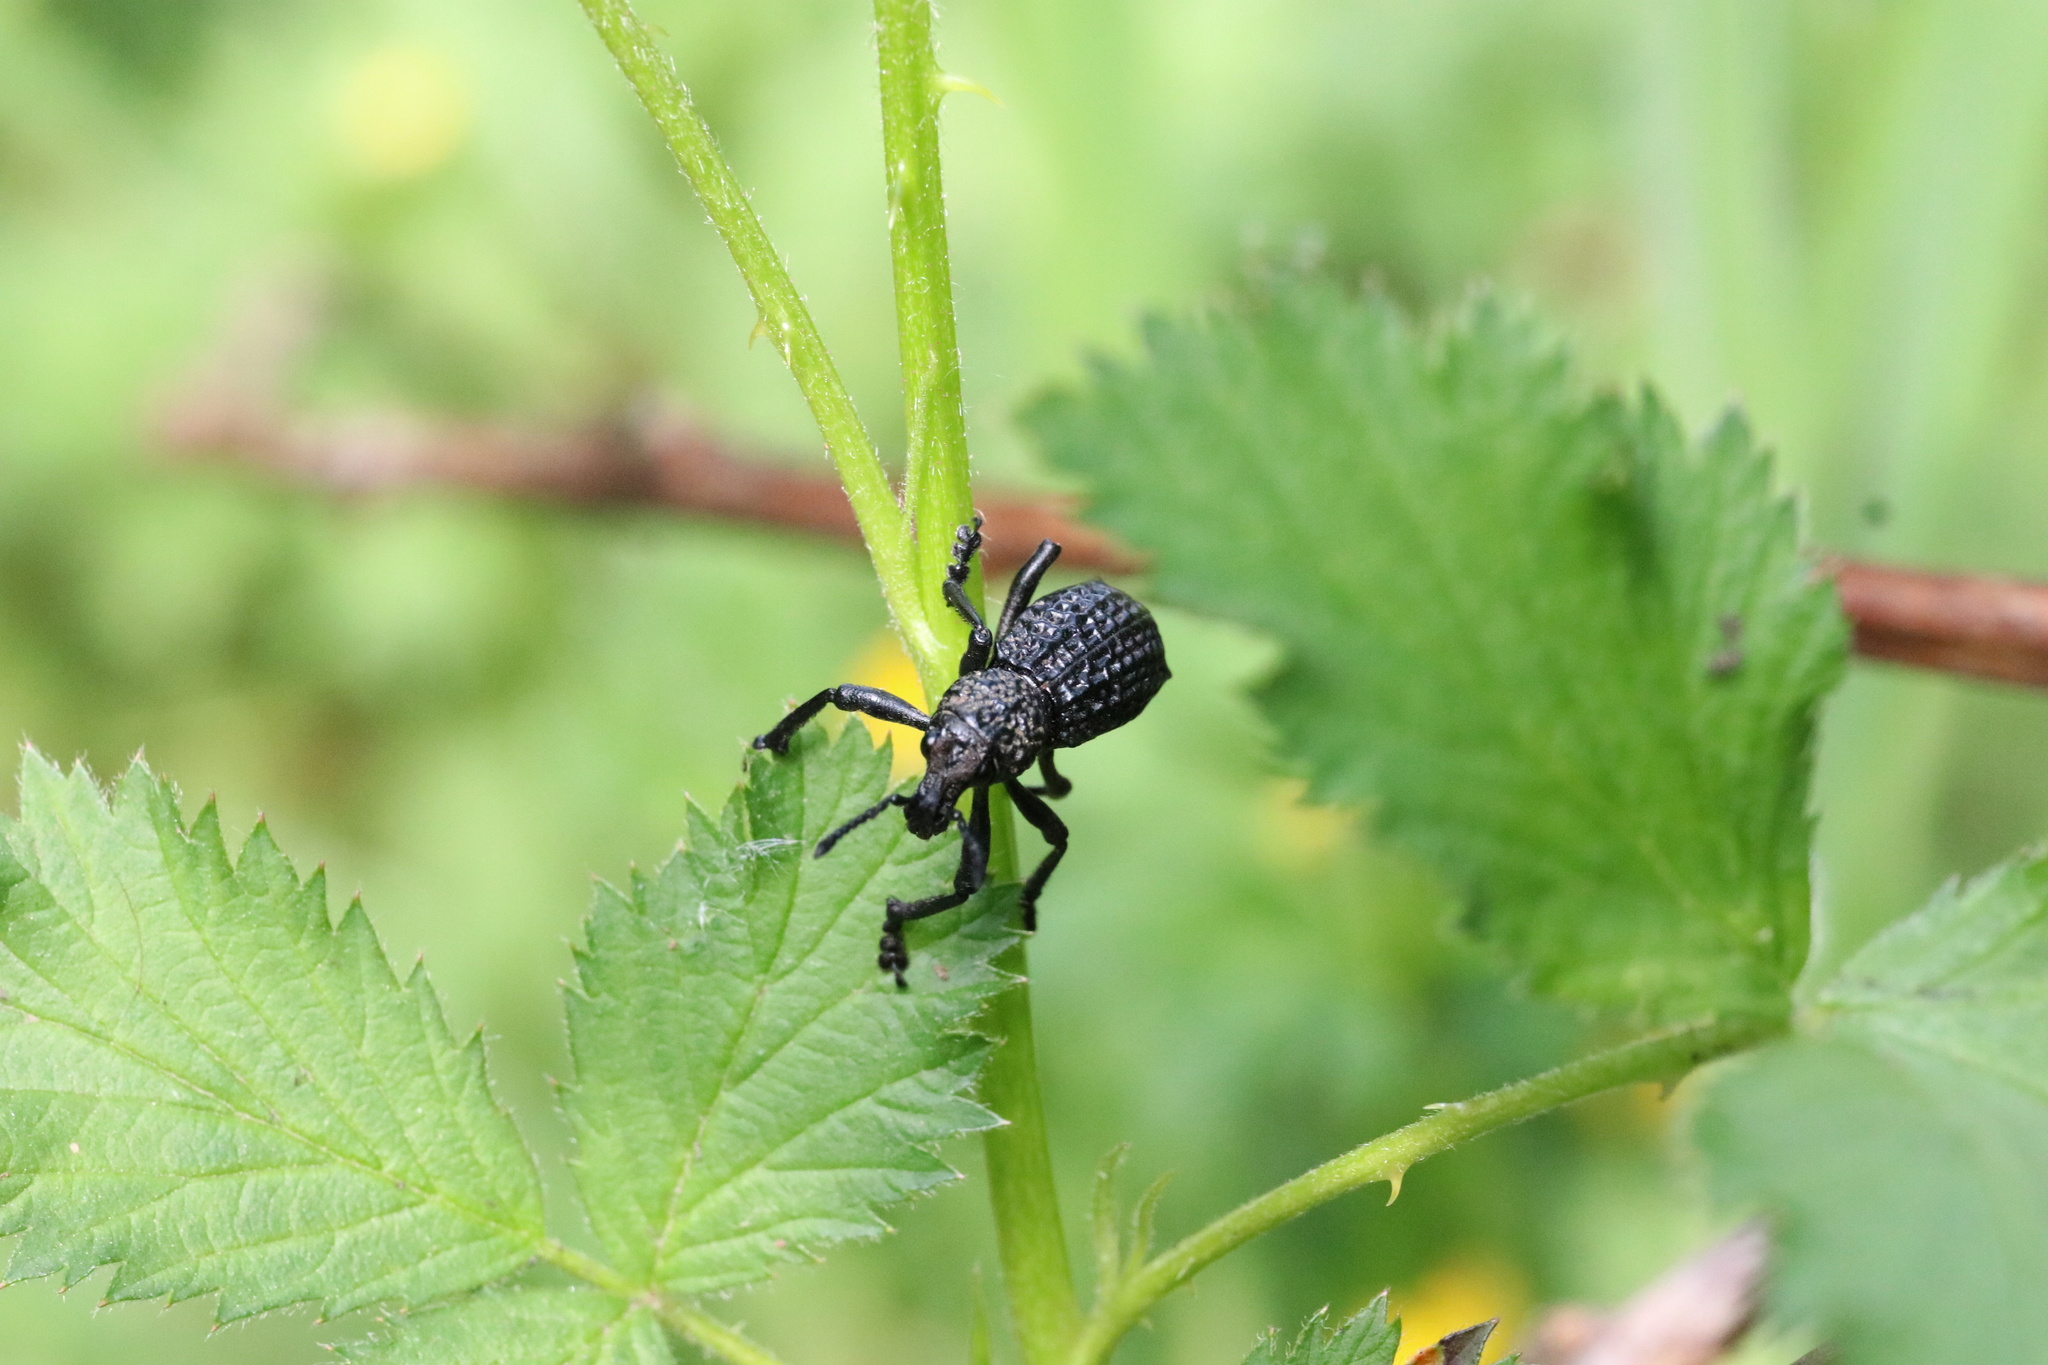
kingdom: Animalia
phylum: Arthropoda
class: Insecta
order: Coleoptera
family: Curculionidae
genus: Aegorhinus
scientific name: Aegorhinus superciliosus
